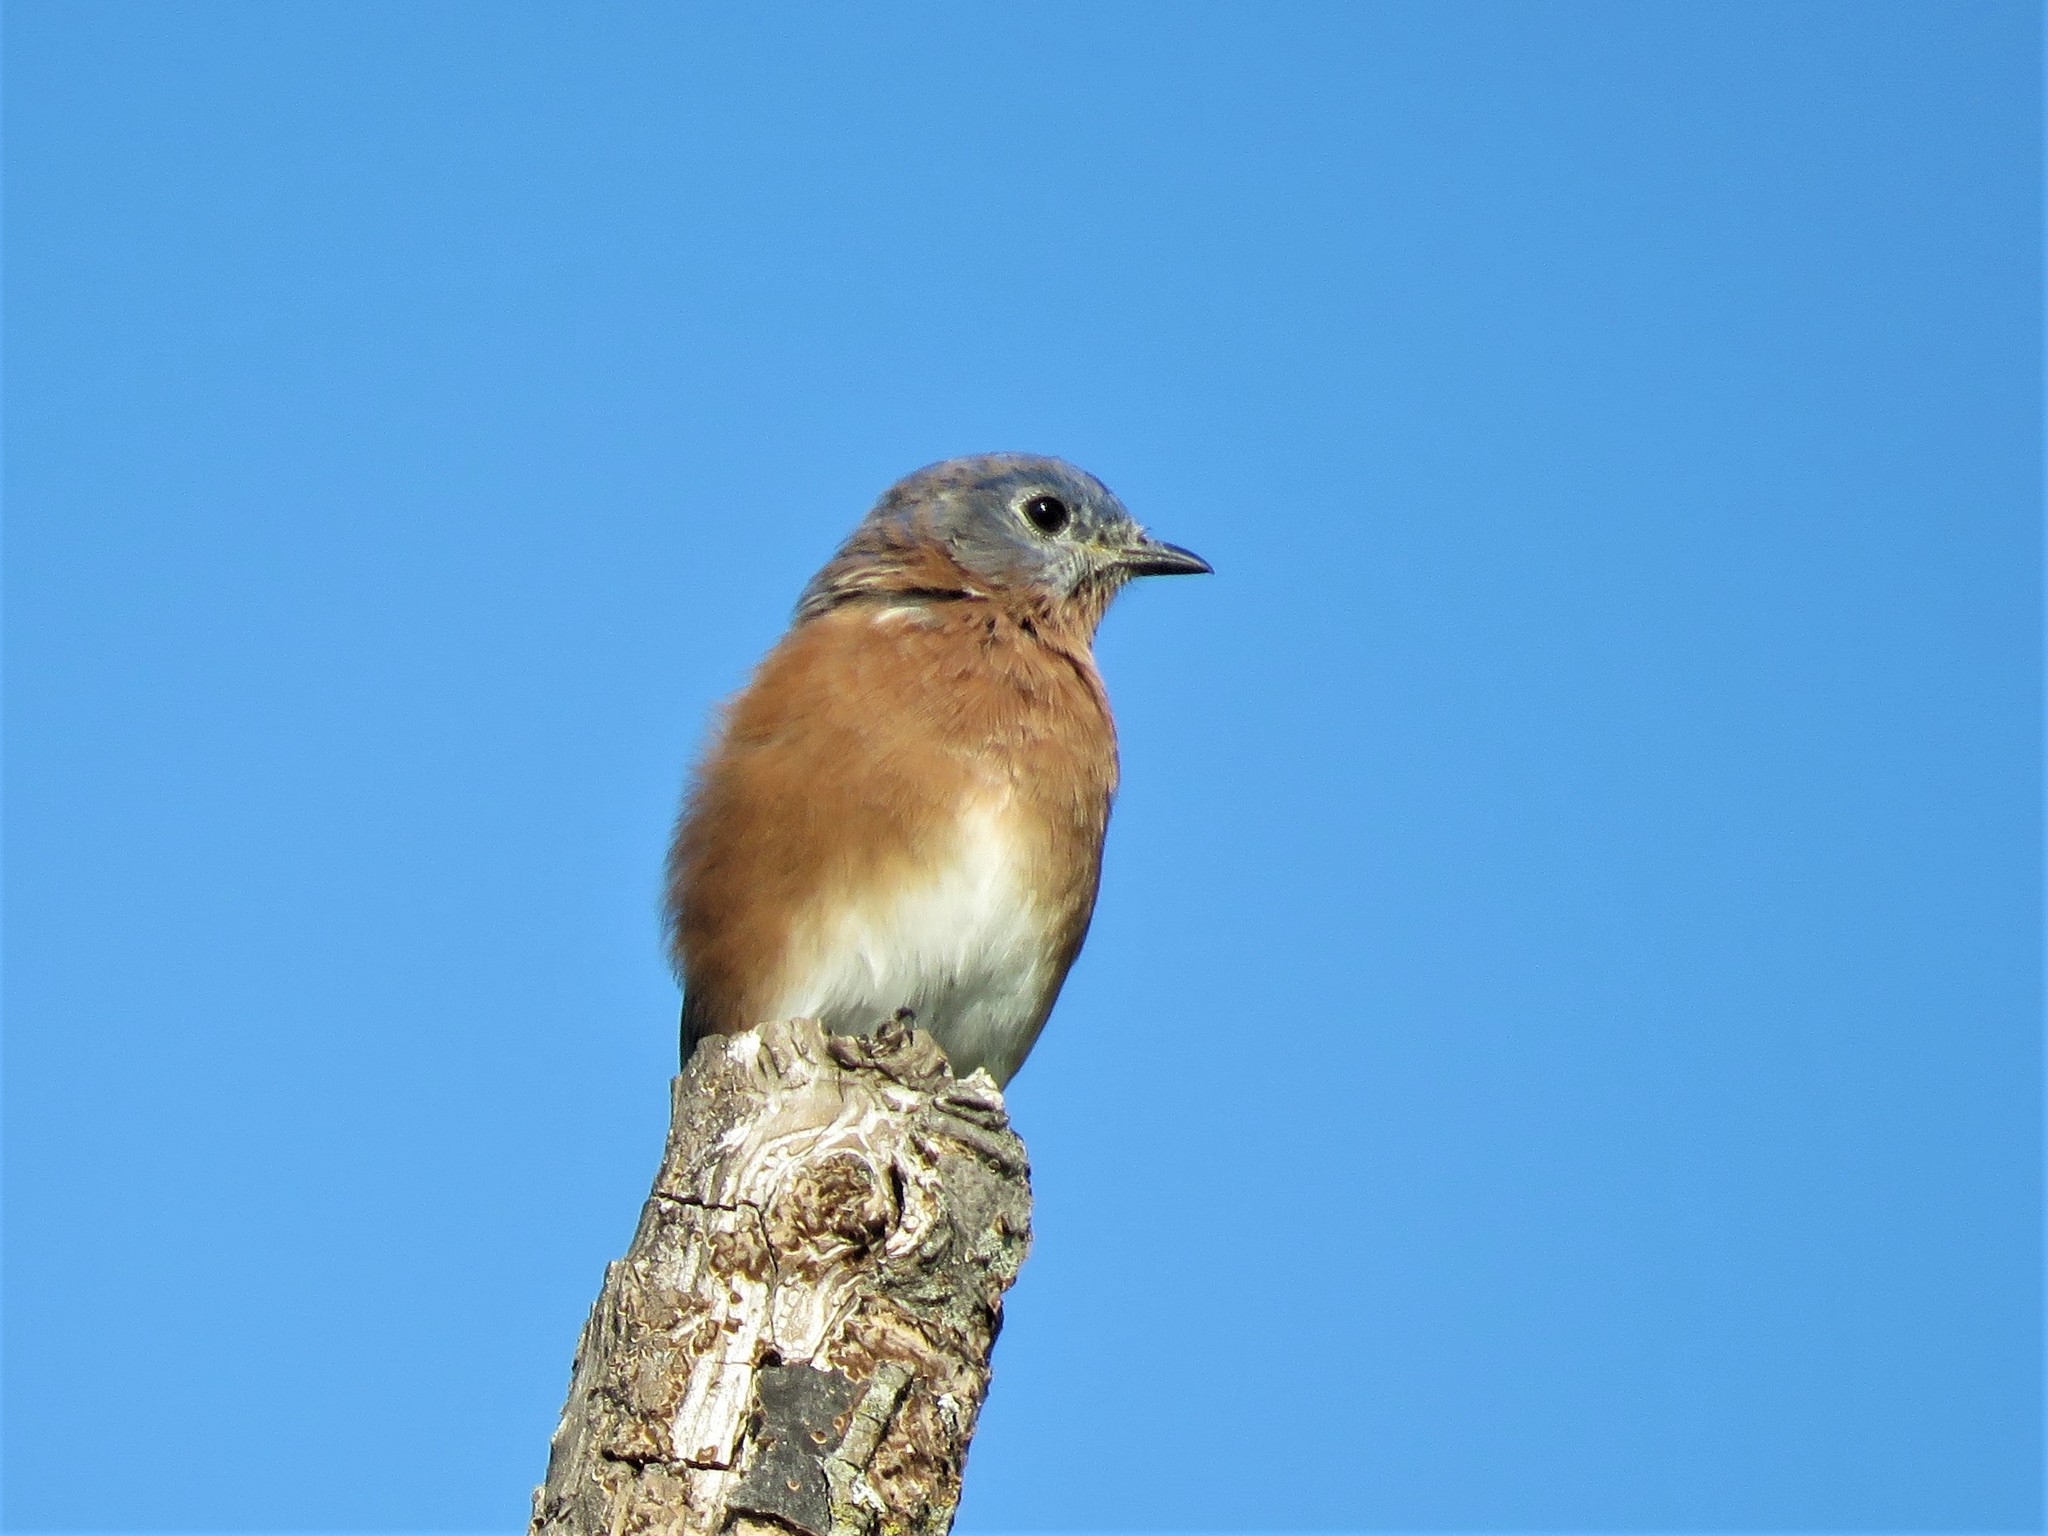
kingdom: Animalia
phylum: Chordata
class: Aves
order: Passeriformes
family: Turdidae
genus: Sialia
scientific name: Sialia sialis
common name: Eastern bluebird
